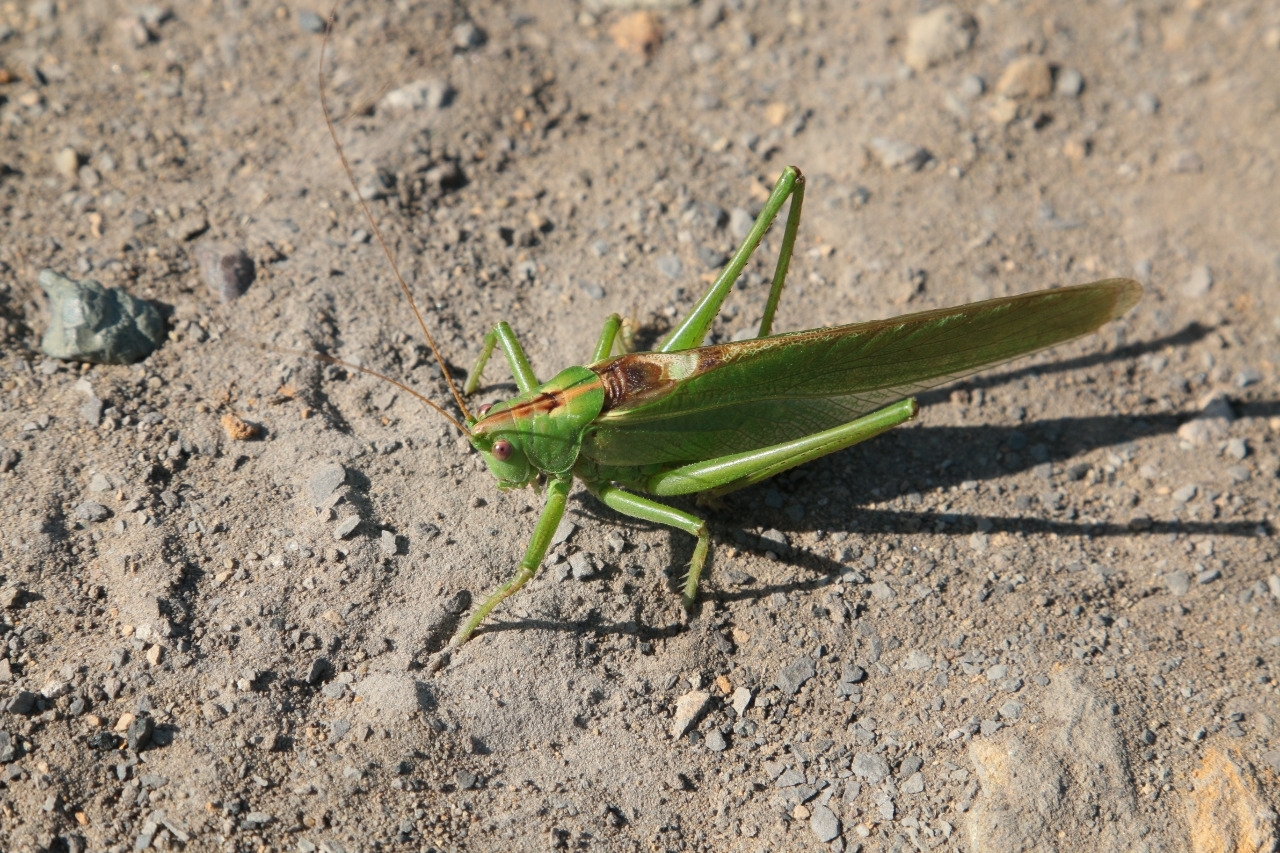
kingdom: Animalia
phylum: Arthropoda
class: Insecta
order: Orthoptera
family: Tettigoniidae
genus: Tettigonia
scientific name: Tettigonia viridissima
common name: Great green bush-cricket
